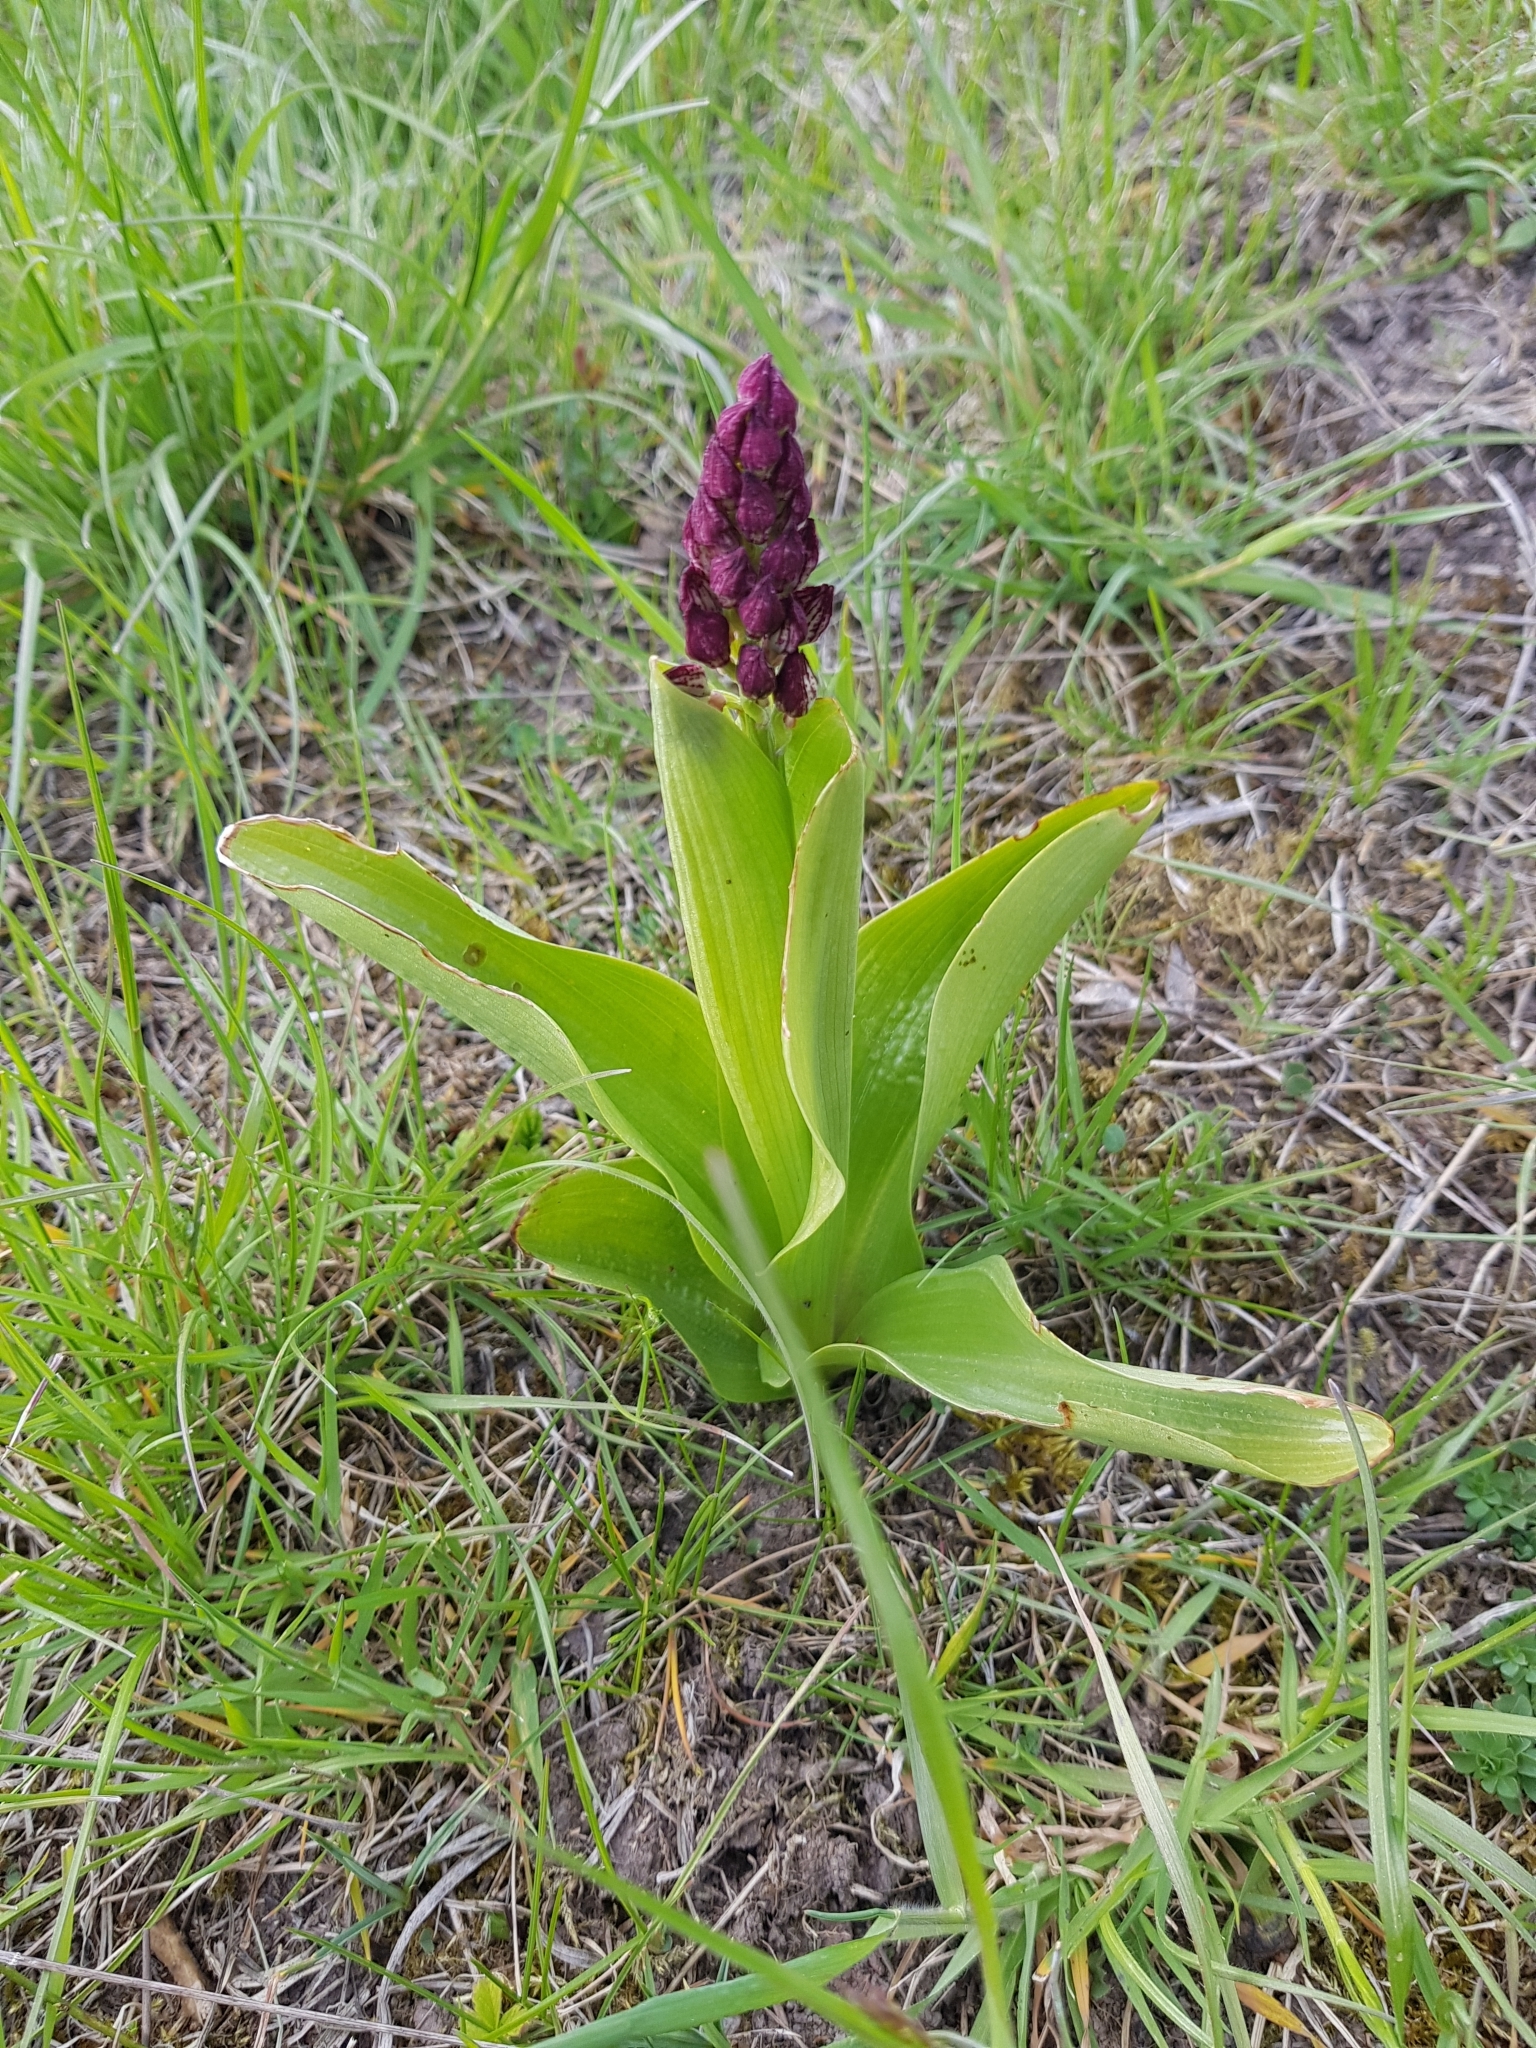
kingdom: Plantae
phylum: Tracheophyta
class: Liliopsida
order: Asparagales
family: Orchidaceae
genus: Orchis
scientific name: Orchis purpurea
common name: Lady orchid
